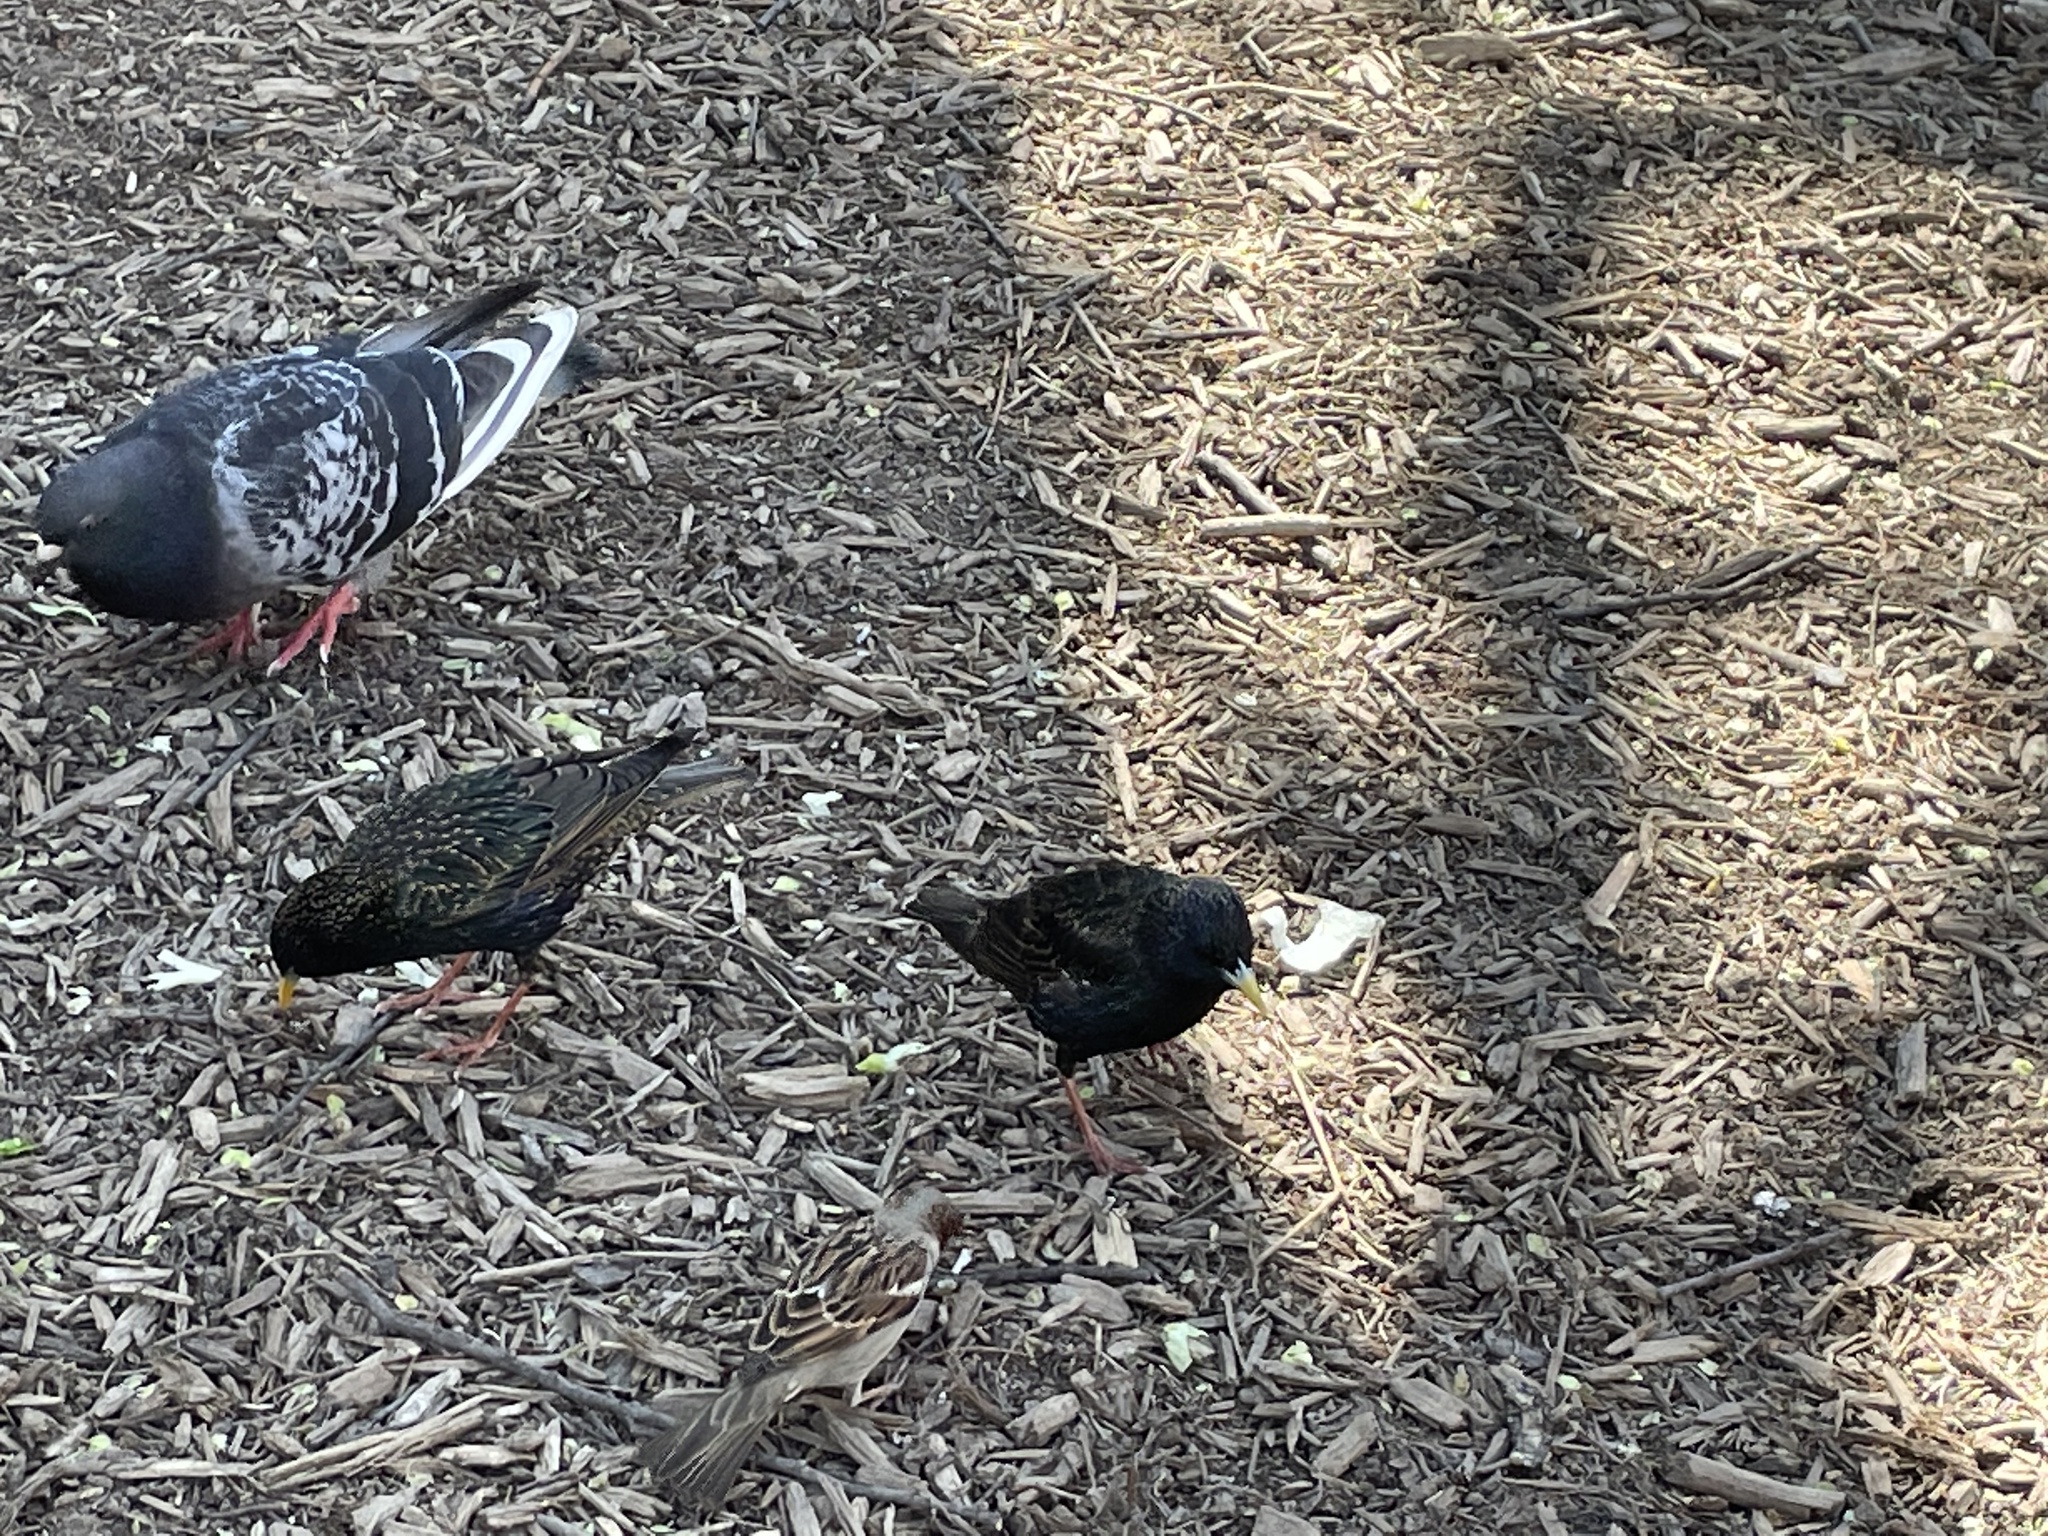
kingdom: Animalia
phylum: Chordata
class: Aves
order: Passeriformes
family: Sturnidae
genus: Sturnus
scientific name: Sturnus vulgaris
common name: Common starling
